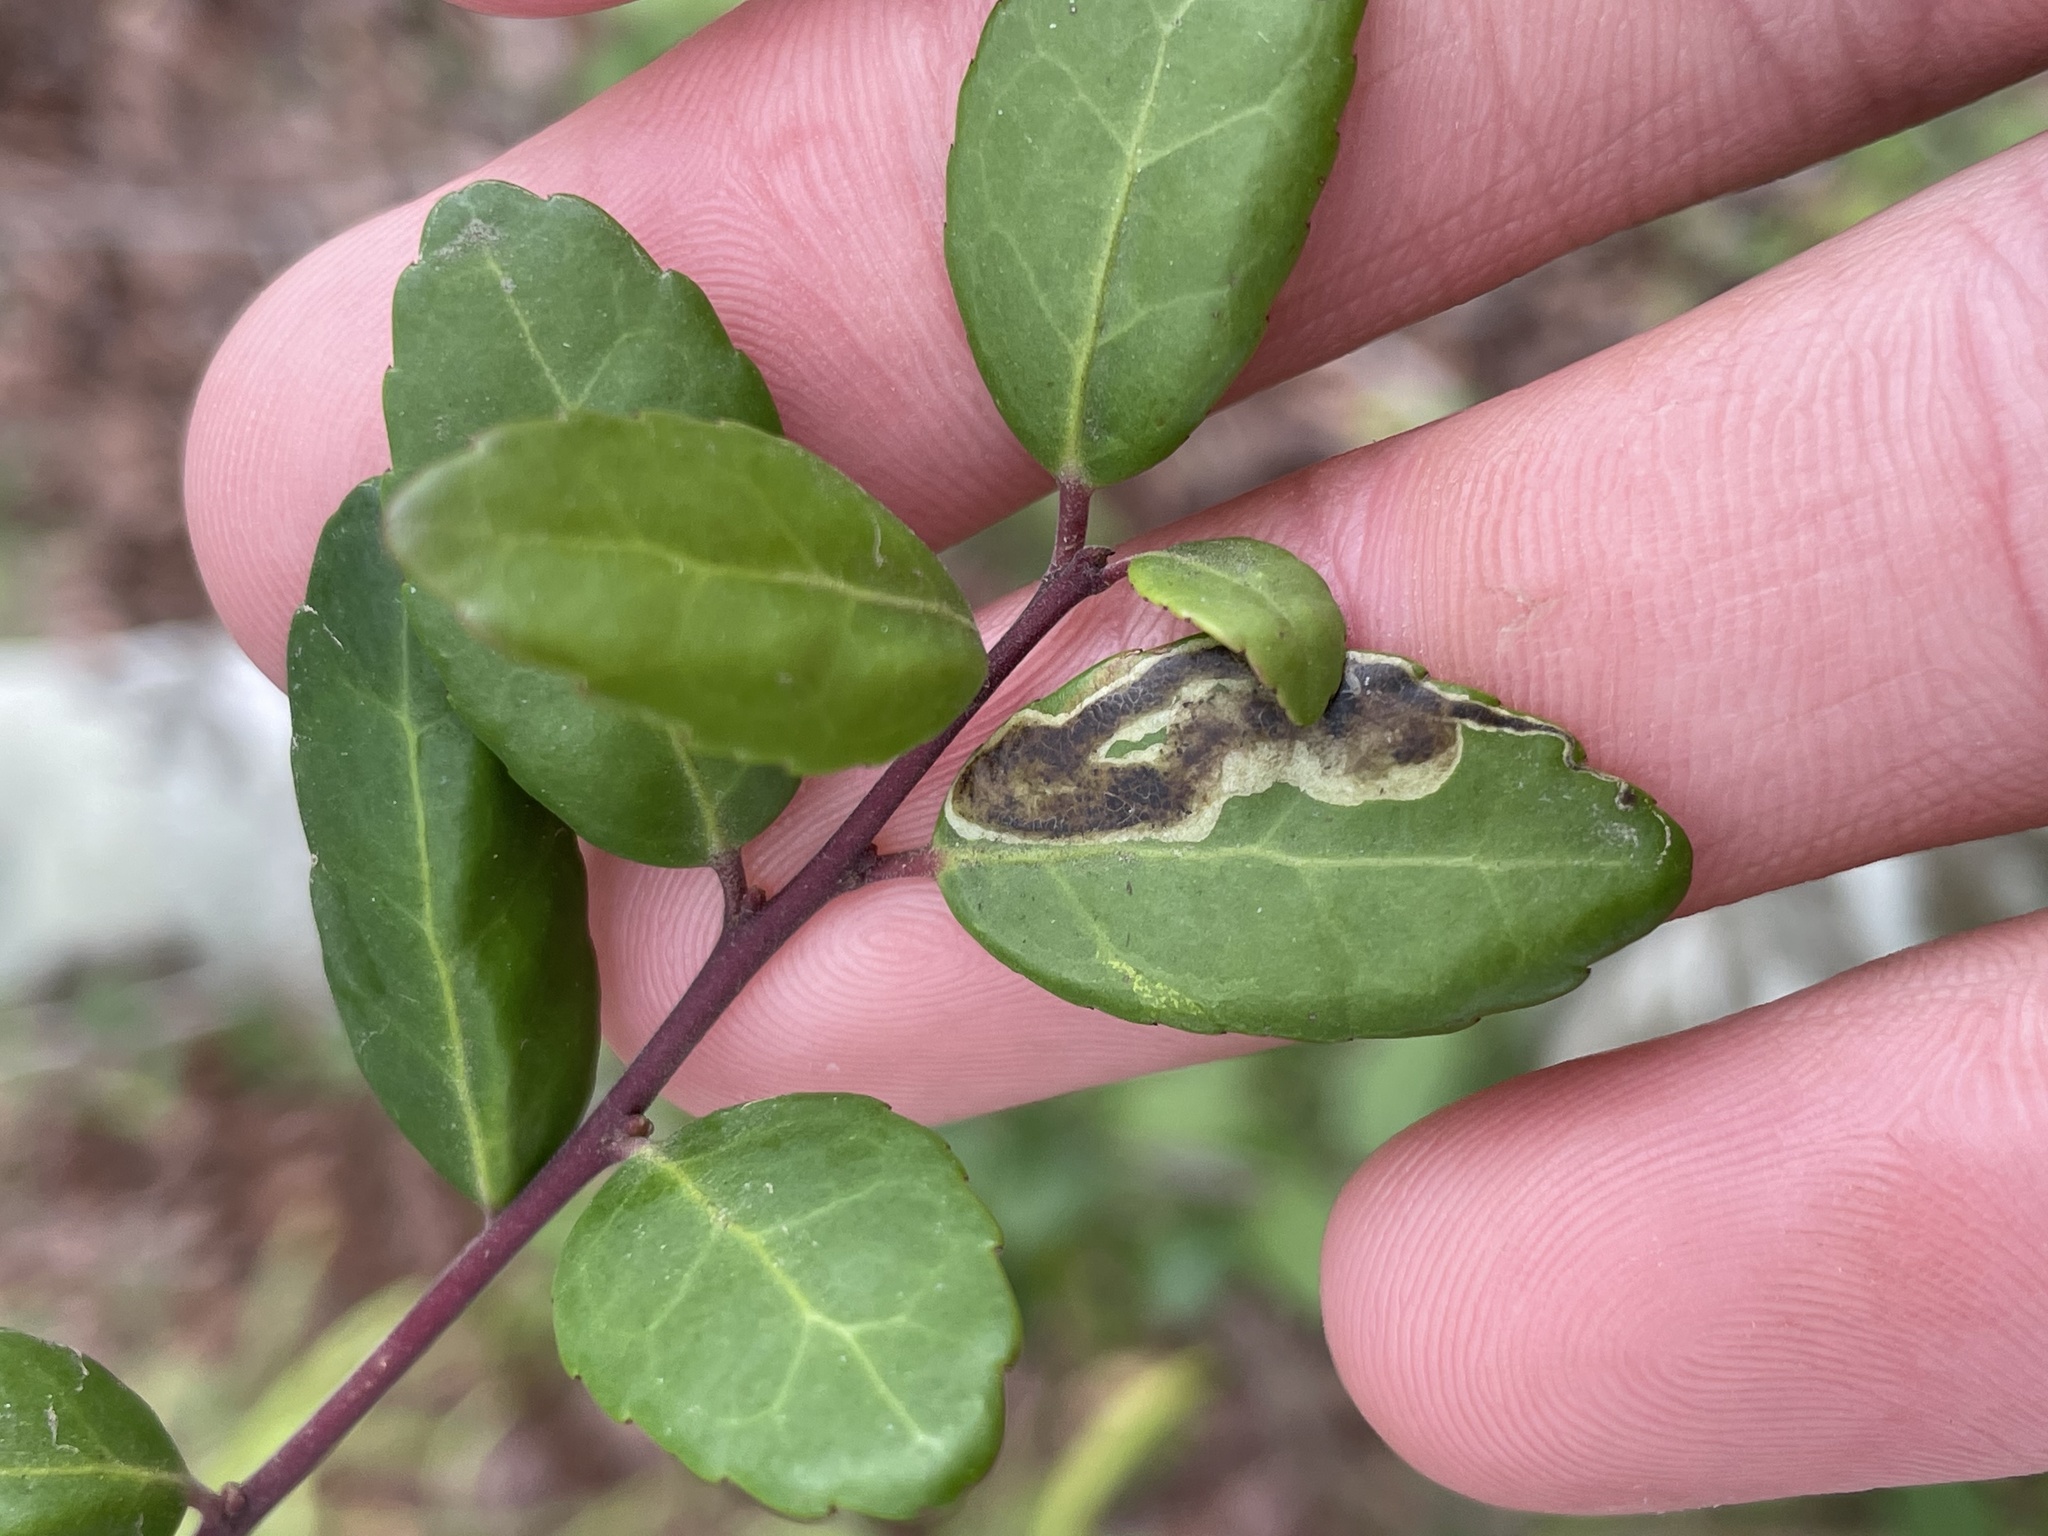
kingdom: Animalia
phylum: Arthropoda
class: Insecta
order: Diptera
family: Agromyzidae
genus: Phytomyza
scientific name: Phytomyza vomitoriae
